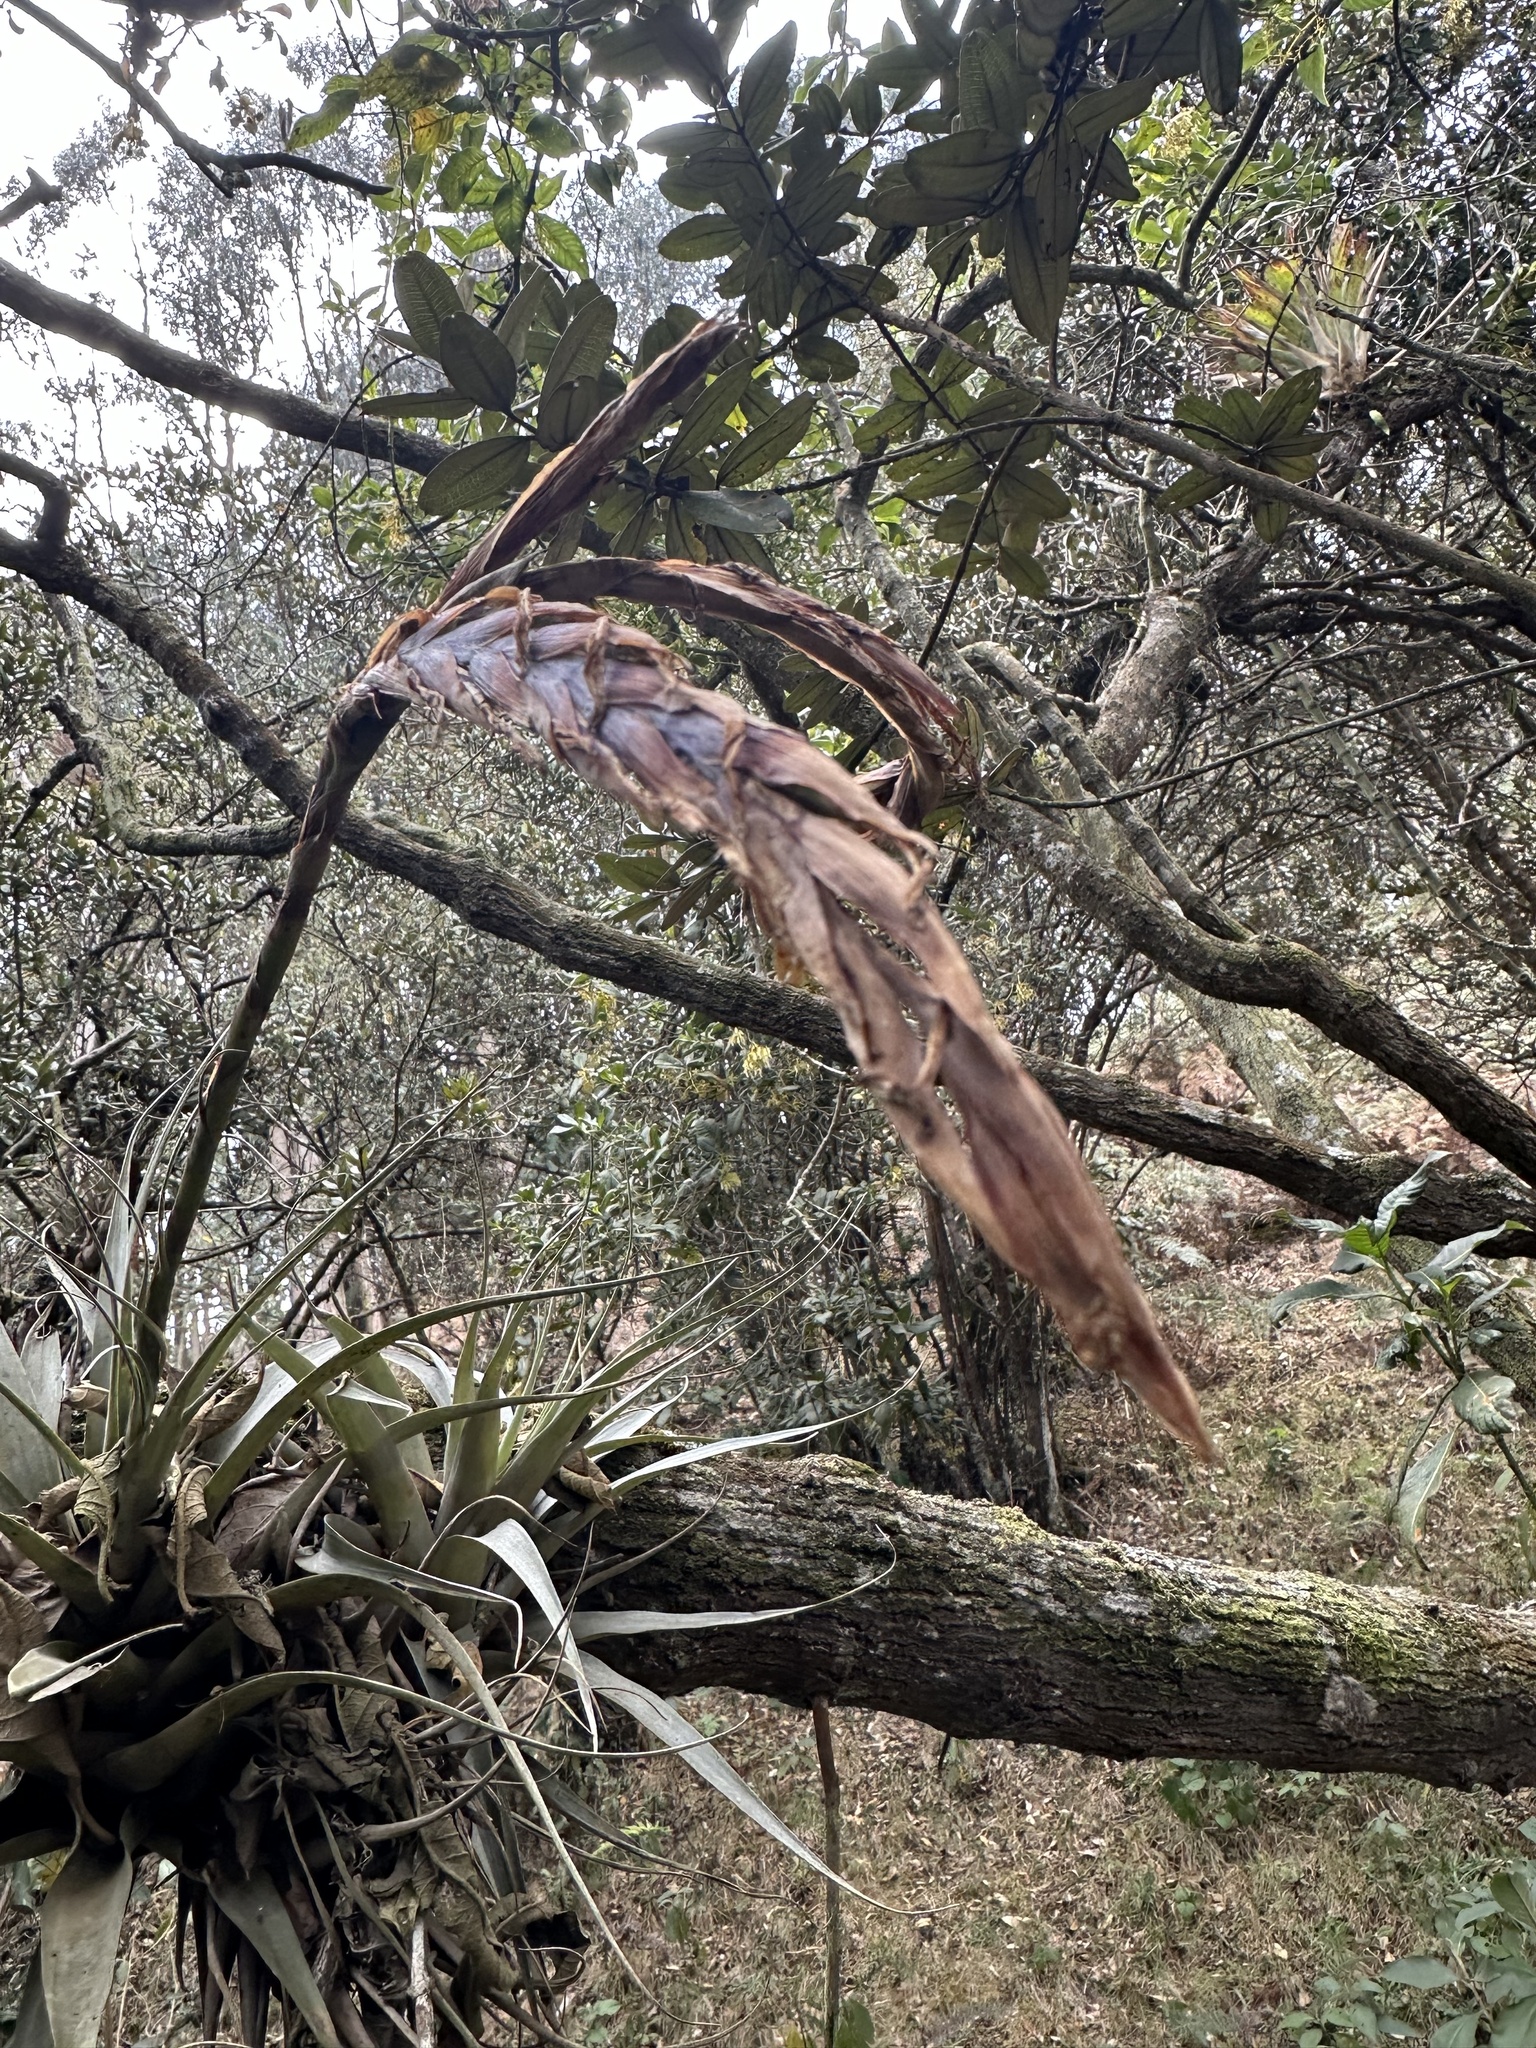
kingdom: Plantae
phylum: Tracheophyta
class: Liliopsida
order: Poales
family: Bromeliaceae
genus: Vriesea
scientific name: Vriesea robusta
